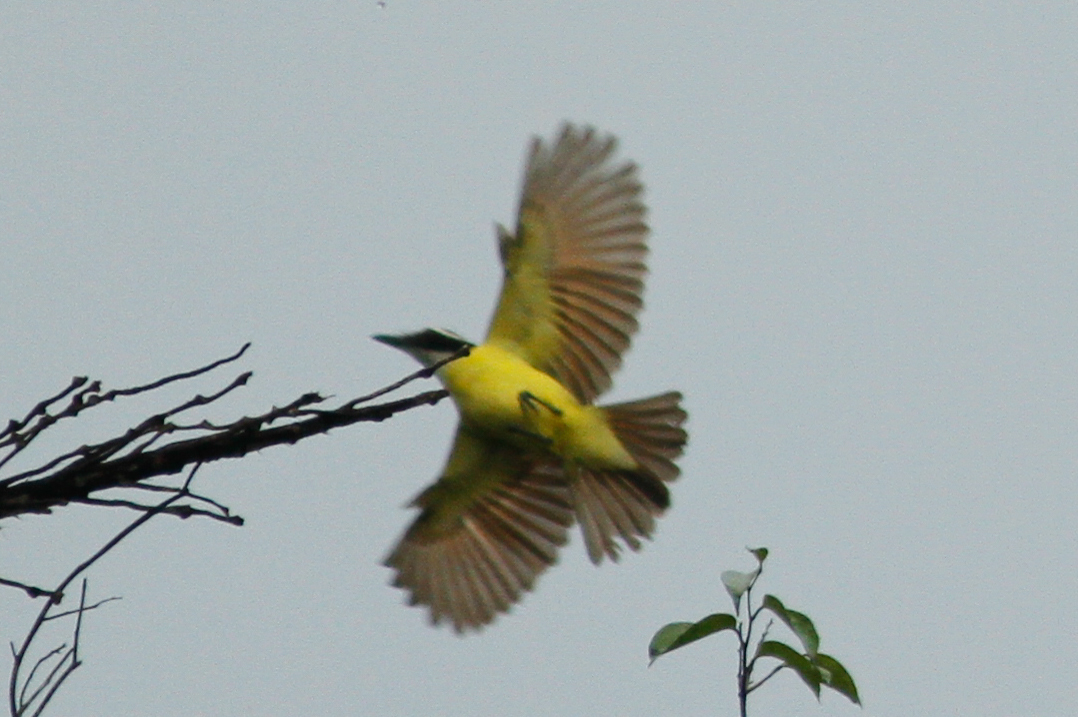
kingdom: Animalia
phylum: Chordata
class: Aves
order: Passeriformes
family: Tyrannidae
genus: Pitangus
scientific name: Pitangus sulphuratus
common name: Great kiskadee
